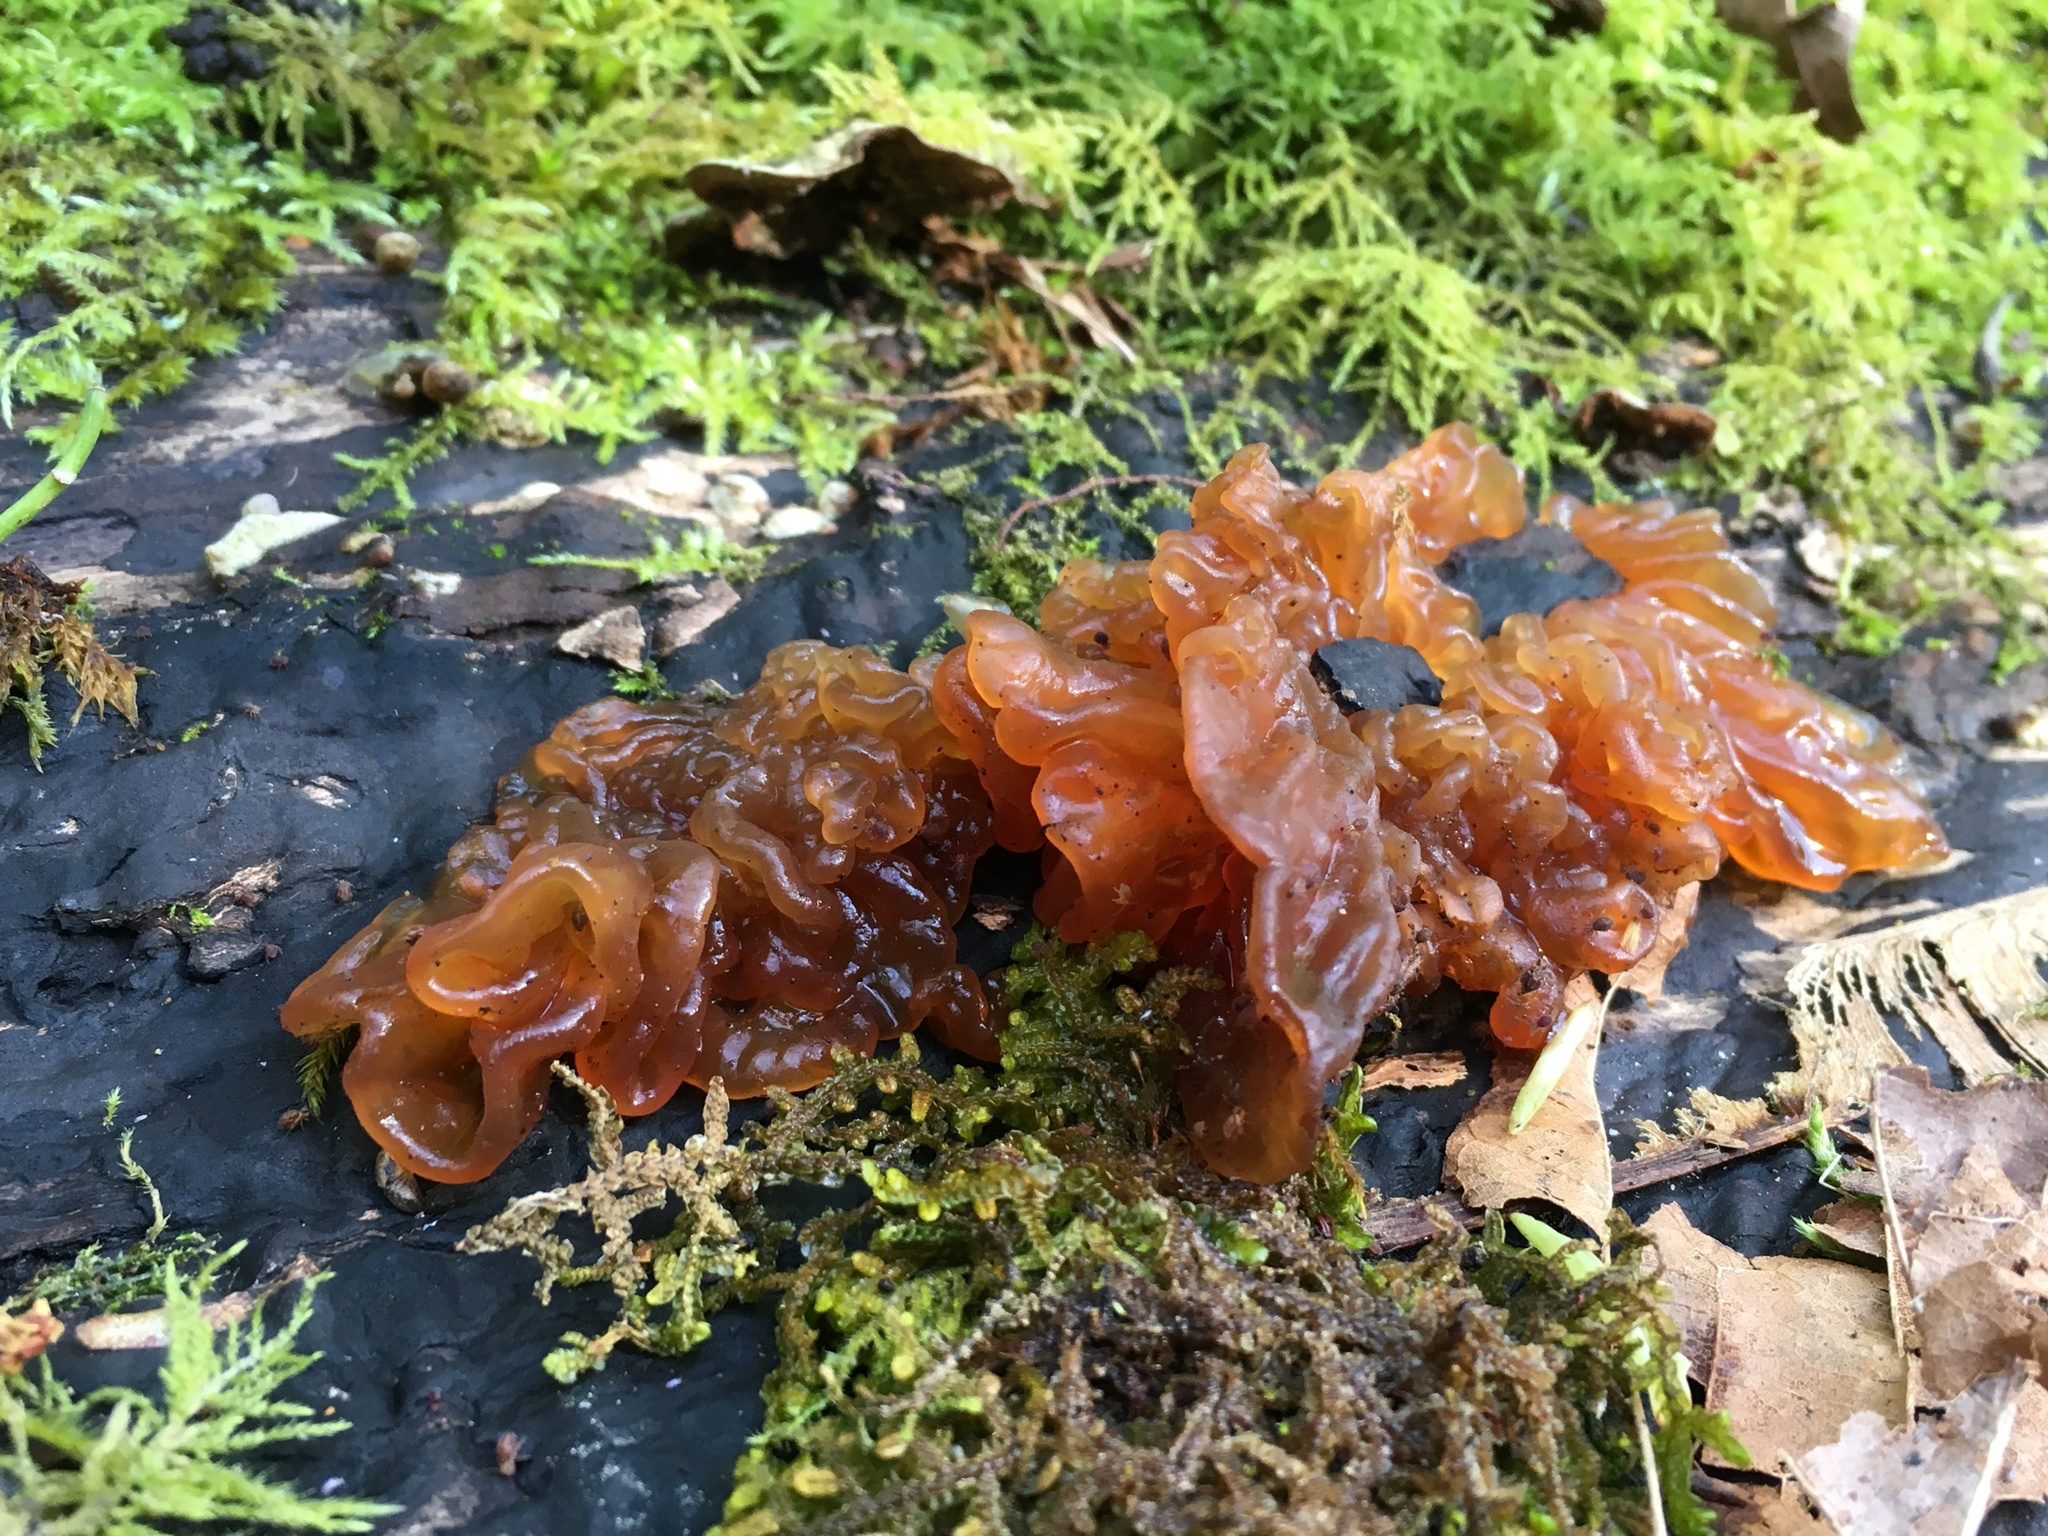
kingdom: Fungi
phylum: Basidiomycota
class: Tremellomycetes
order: Tremellales
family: Tremellaceae
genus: Phaeotremella
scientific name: Phaeotremella foliacea
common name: Leafy brain
